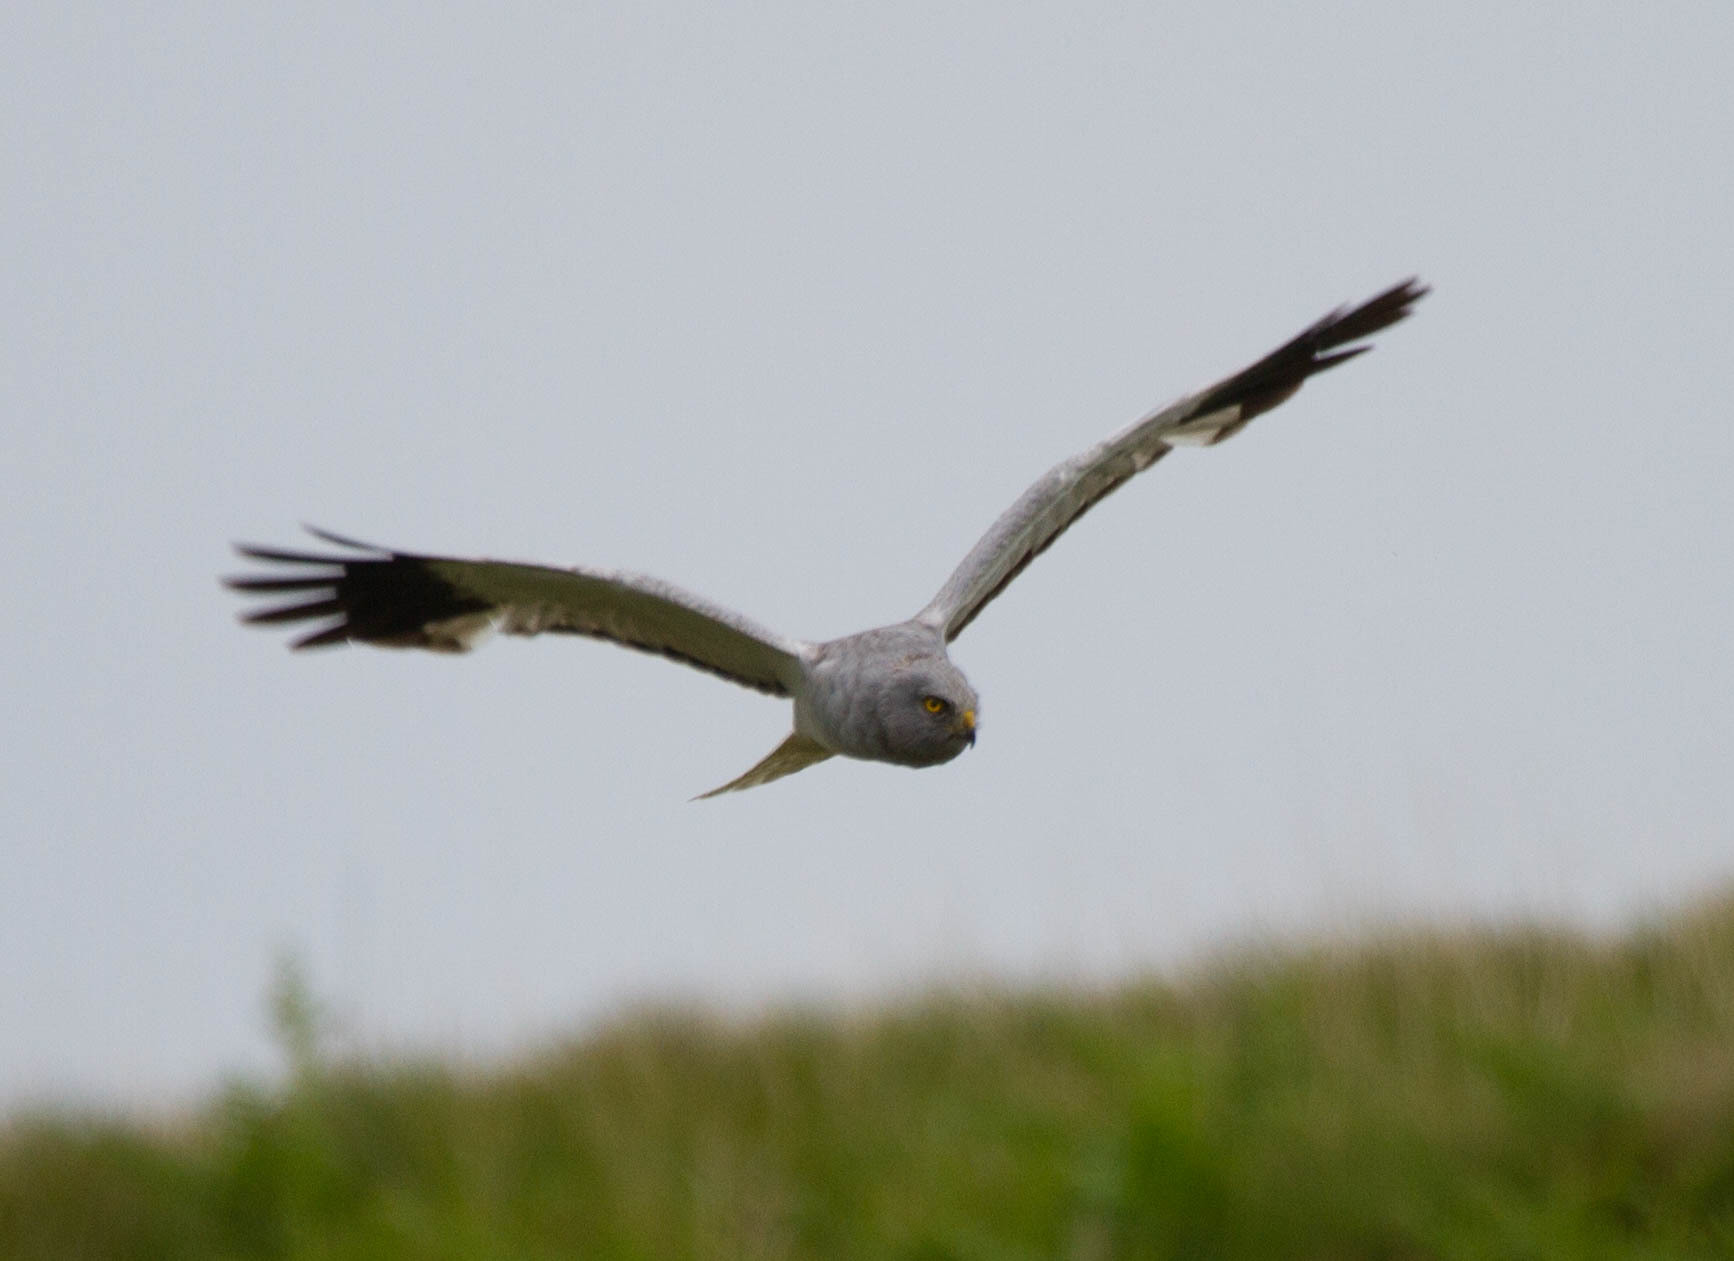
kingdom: Animalia
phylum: Chordata
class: Aves
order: Accipitriformes
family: Accipitridae
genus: Circus
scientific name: Circus cyaneus
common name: Hen harrier
